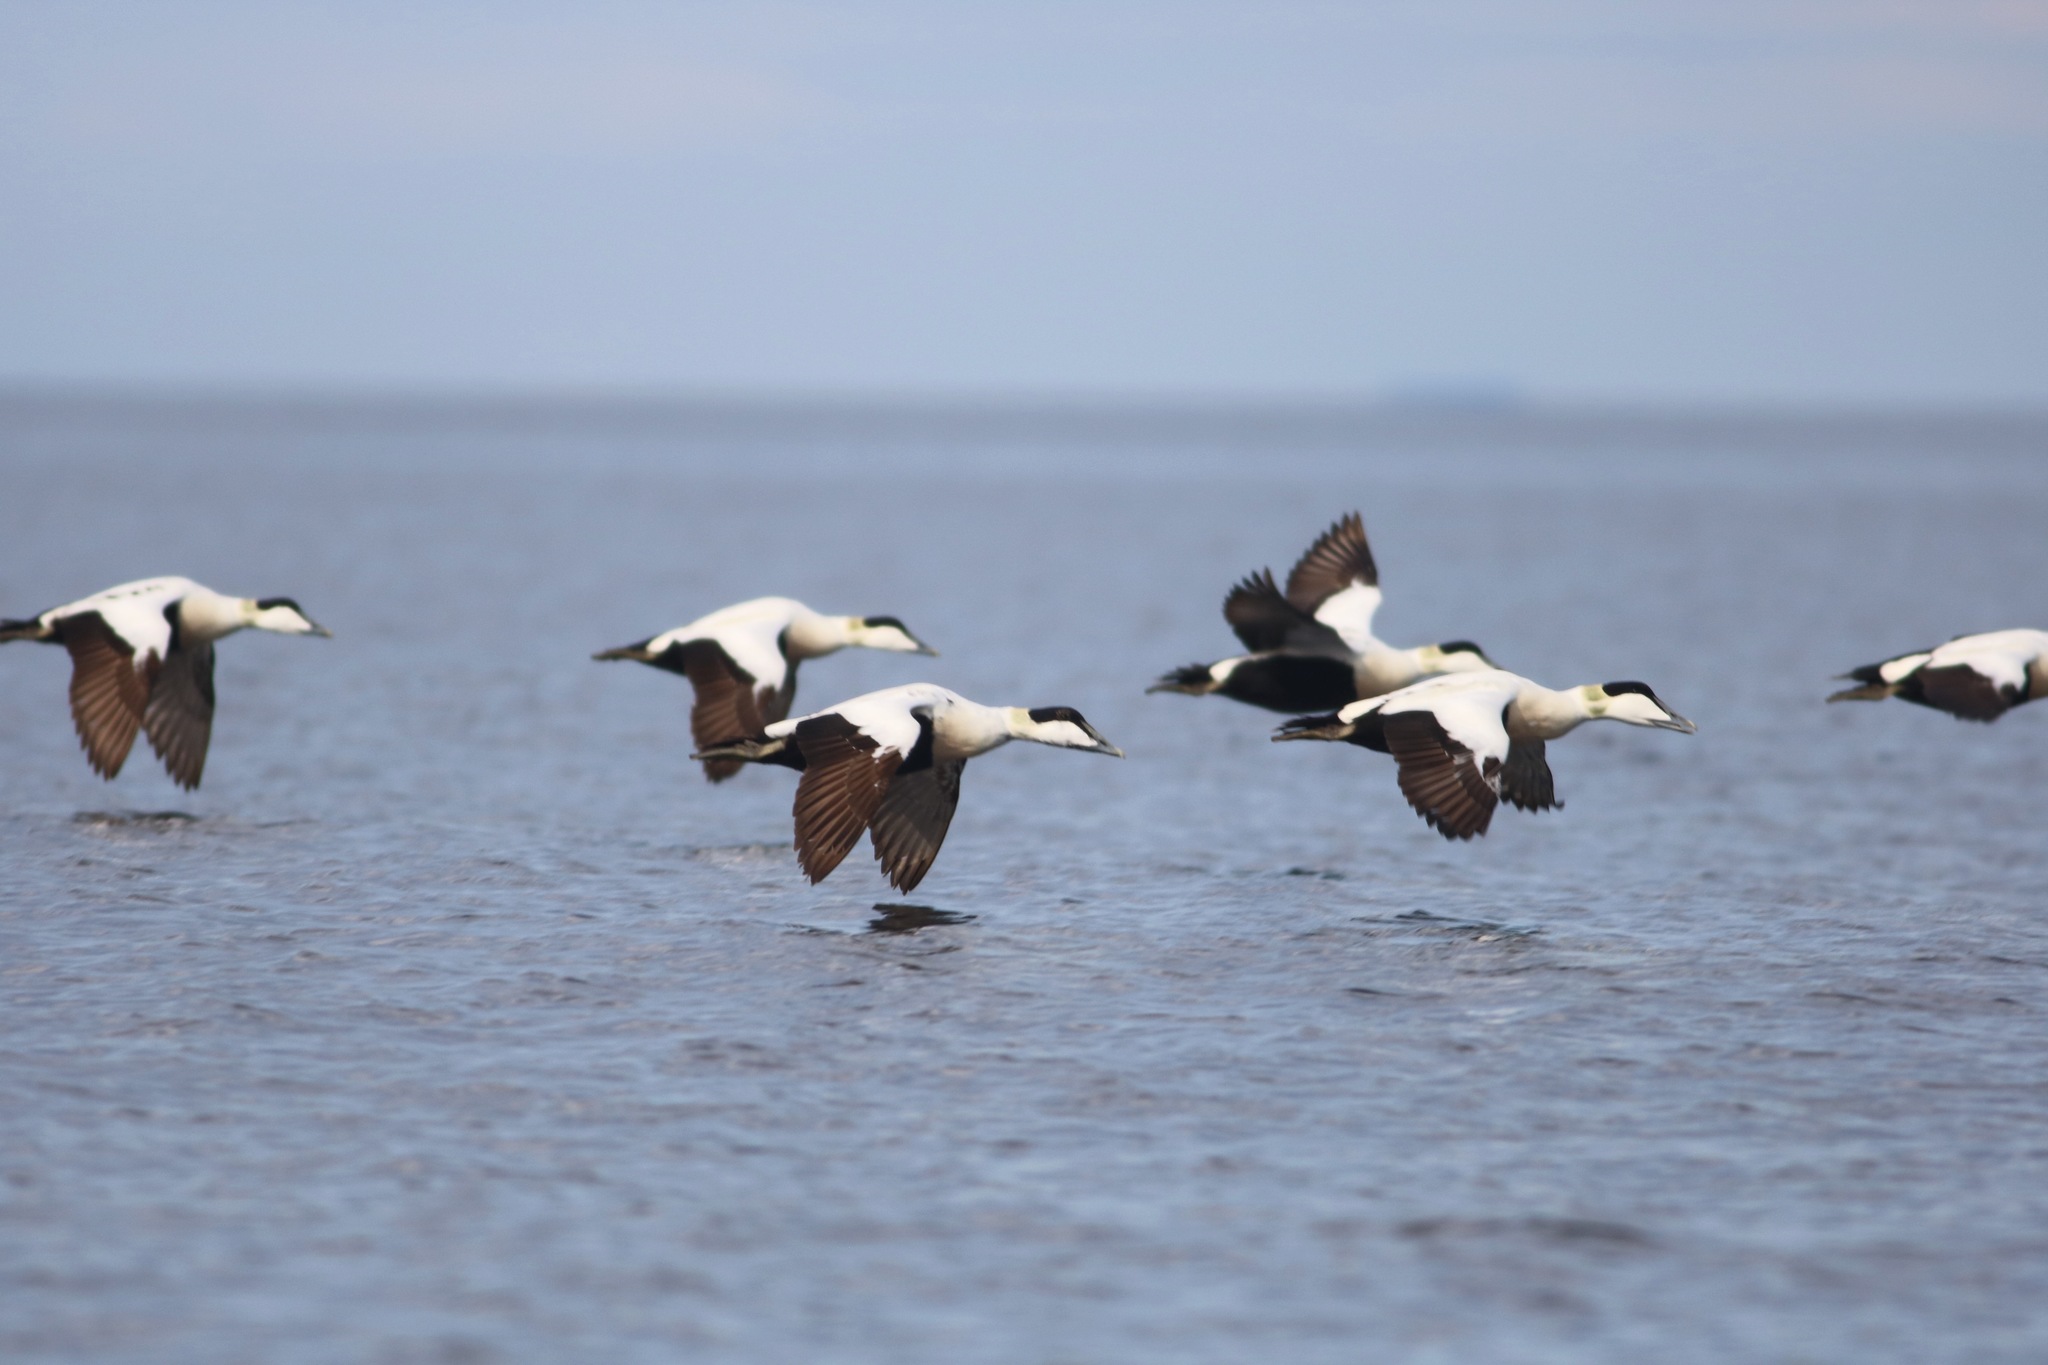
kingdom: Animalia
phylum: Chordata
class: Aves
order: Anseriformes
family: Anatidae
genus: Somateria
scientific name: Somateria mollissima
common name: Common eider
